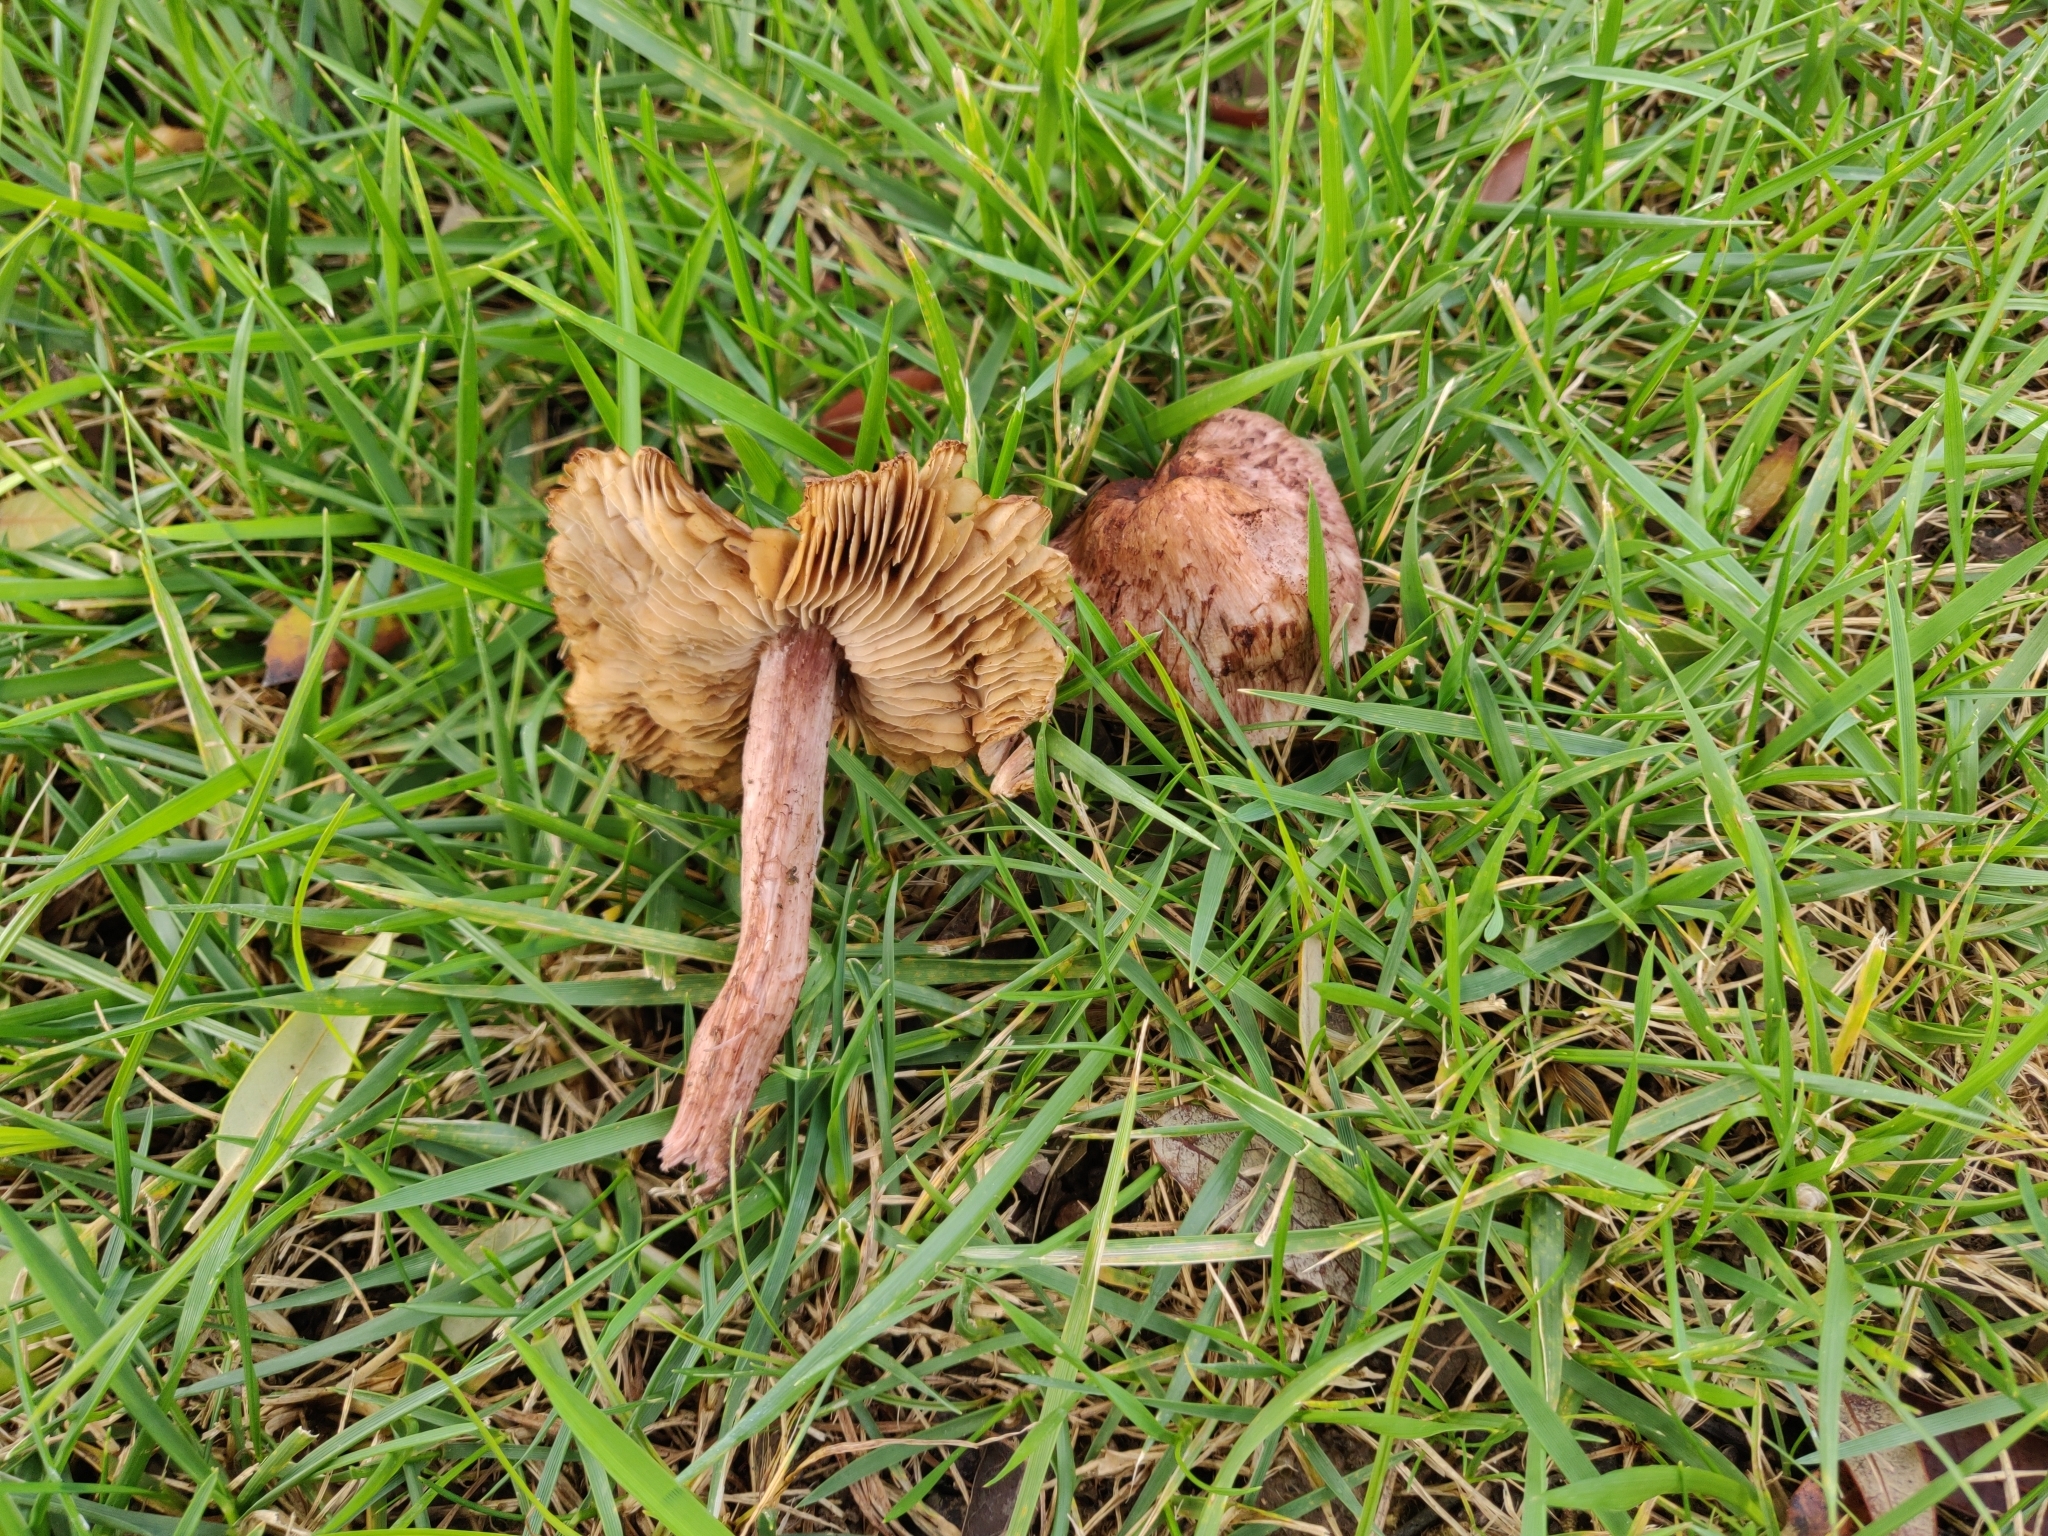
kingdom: Fungi
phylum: Basidiomycota
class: Agaricomycetes
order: Agaricales
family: Inocybaceae
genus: Inosperma
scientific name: Inosperma vinaceum
